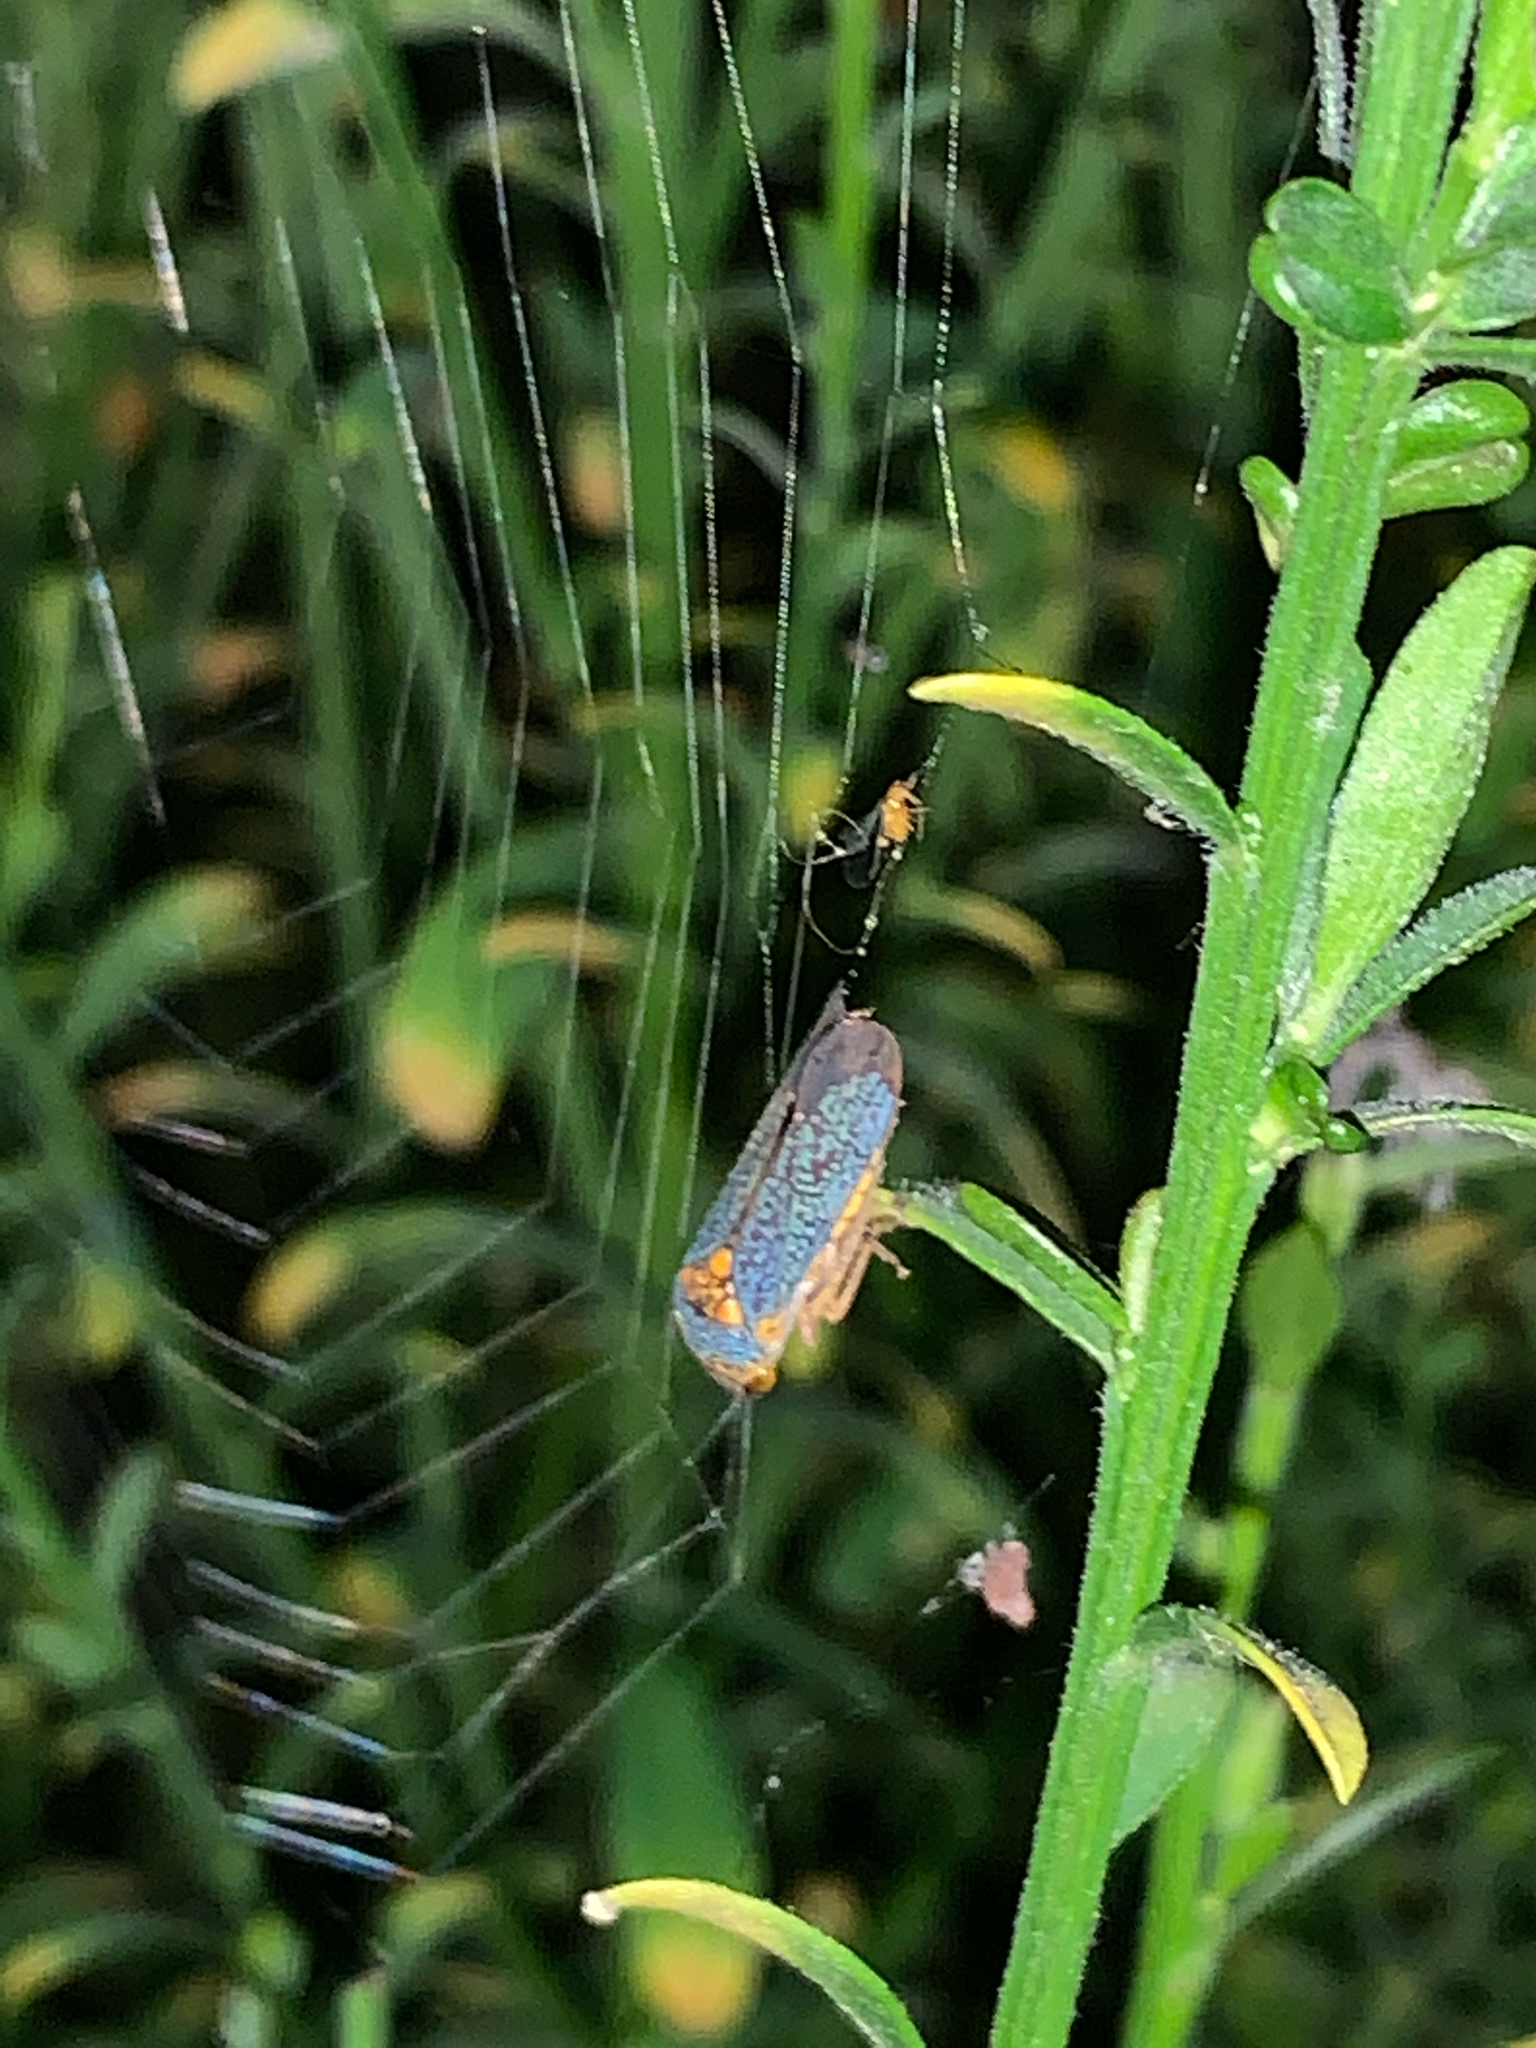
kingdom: Animalia
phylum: Arthropoda
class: Insecta
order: Hemiptera
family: Cicadellidae
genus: Oncometopia
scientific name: Oncometopia orbona
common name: Broad-headed sharpshooter
